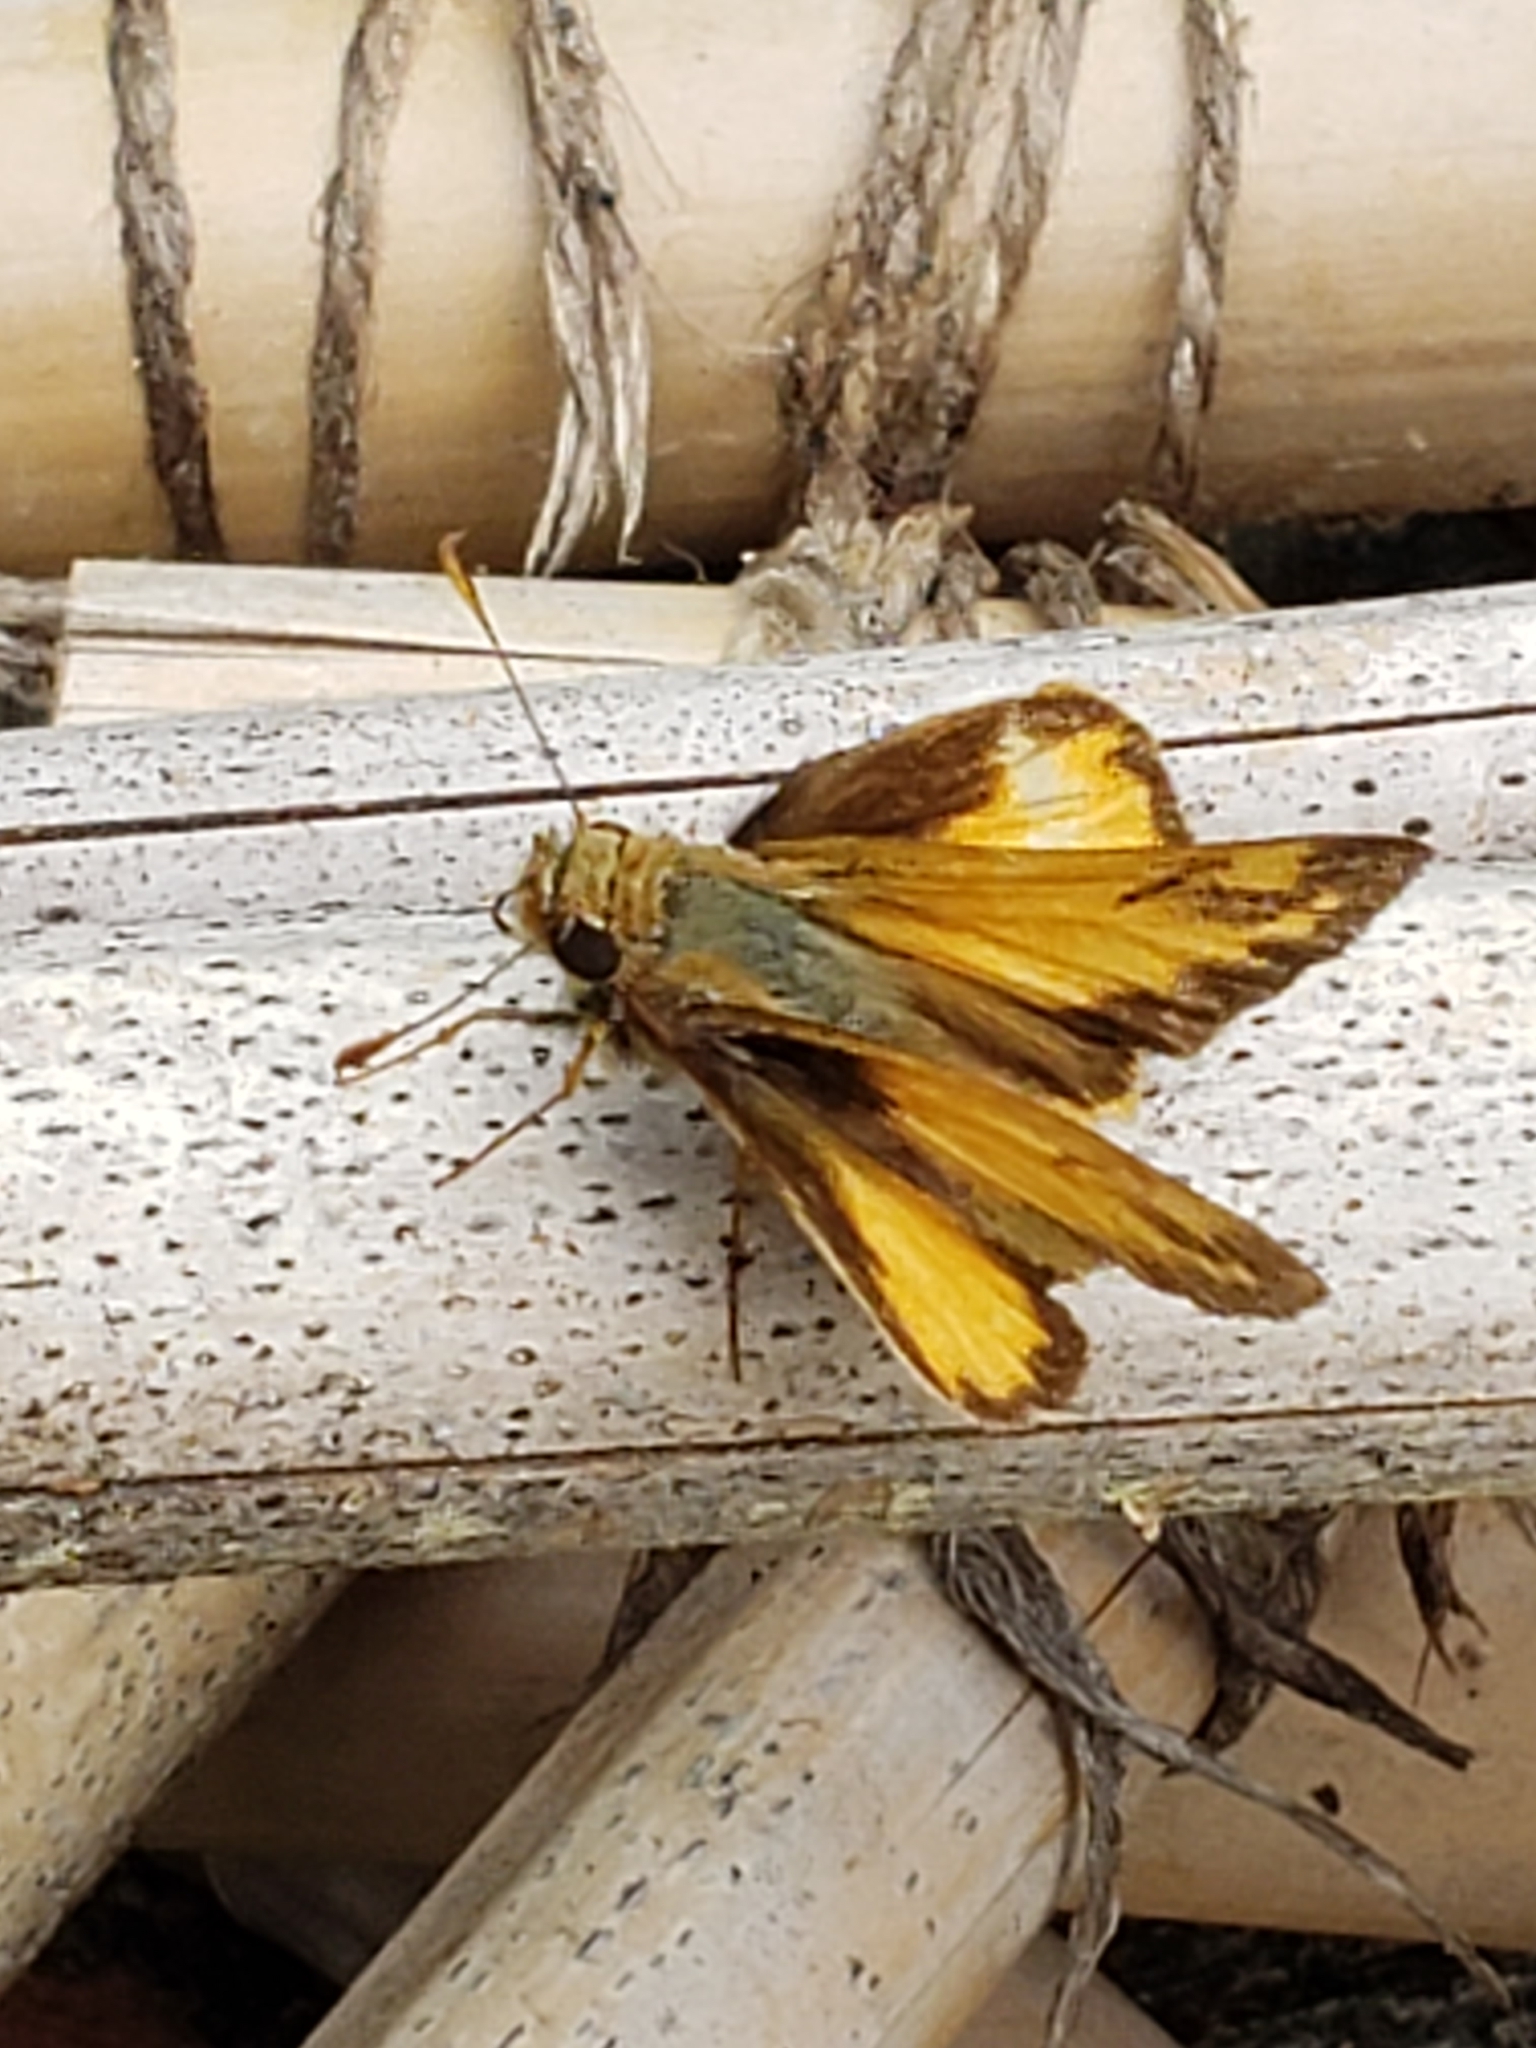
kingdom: Animalia
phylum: Arthropoda
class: Insecta
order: Lepidoptera
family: Hesperiidae
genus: Lon
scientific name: Lon zabulon
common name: Zabulon skipper
